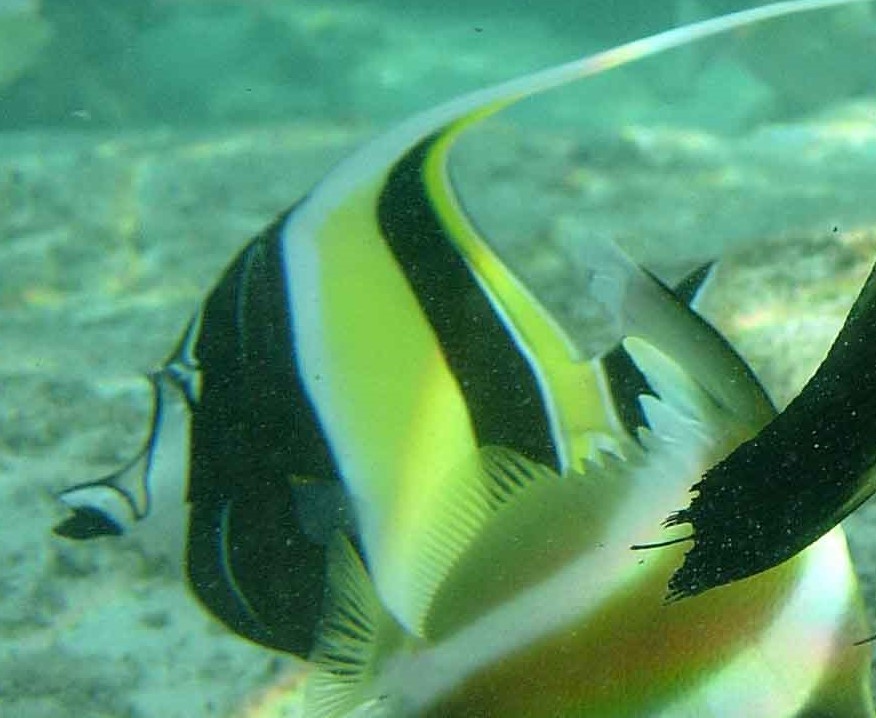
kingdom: Animalia
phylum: Chordata
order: Perciformes
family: Zanclidae
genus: Zanclus
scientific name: Zanclus cornutus
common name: Moorish idol
